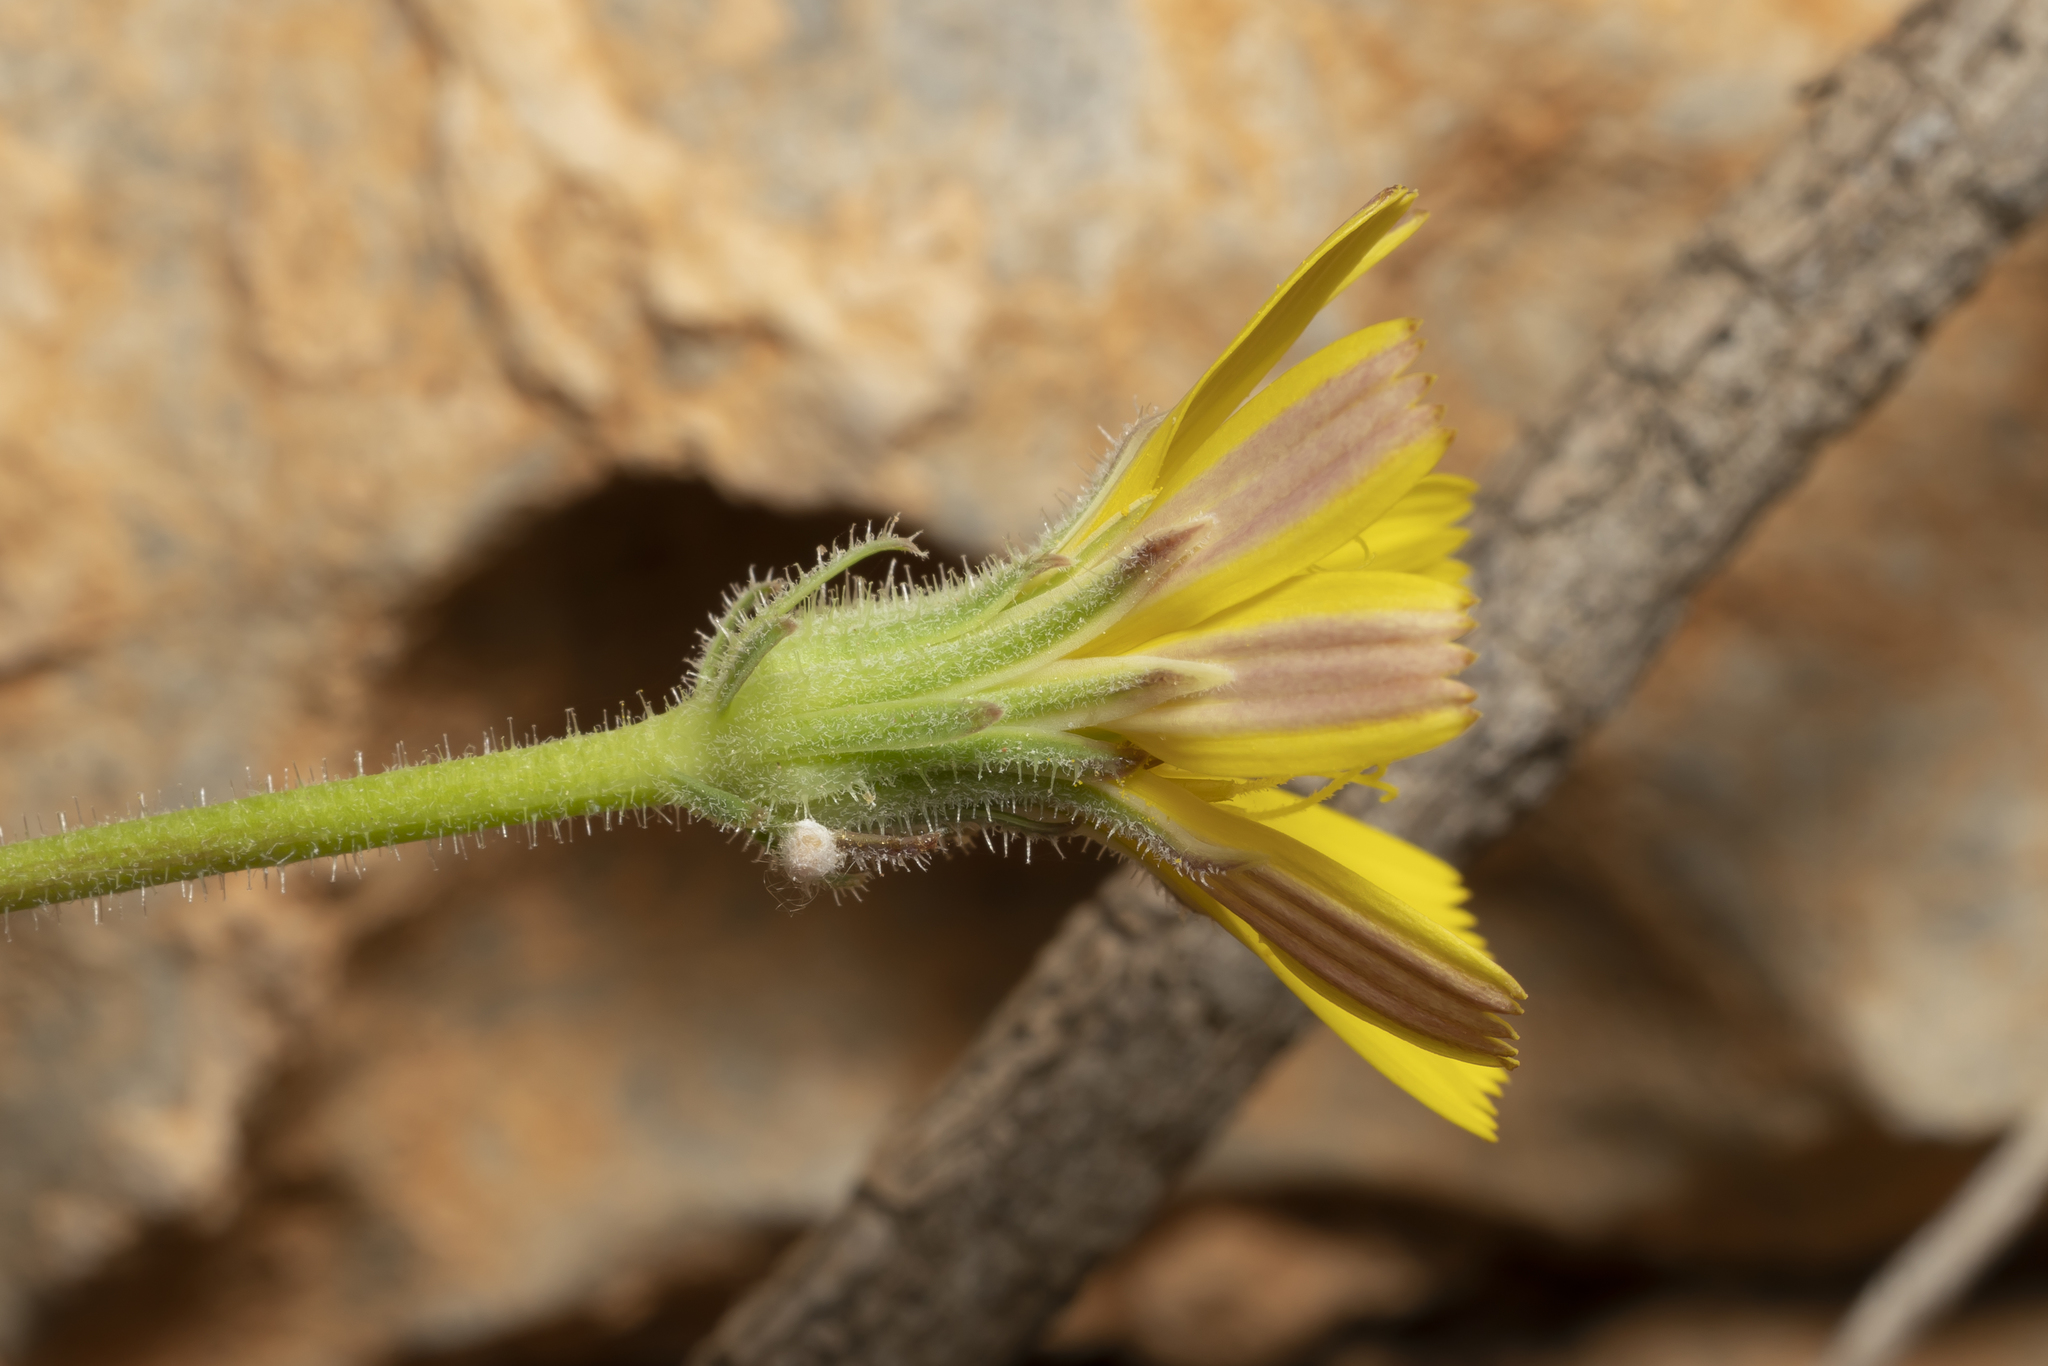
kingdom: Plantae
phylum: Tracheophyta
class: Magnoliopsida
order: Asterales
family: Asteraceae
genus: Picris
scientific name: Picris pauciflora
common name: Smallflower oxtongue
